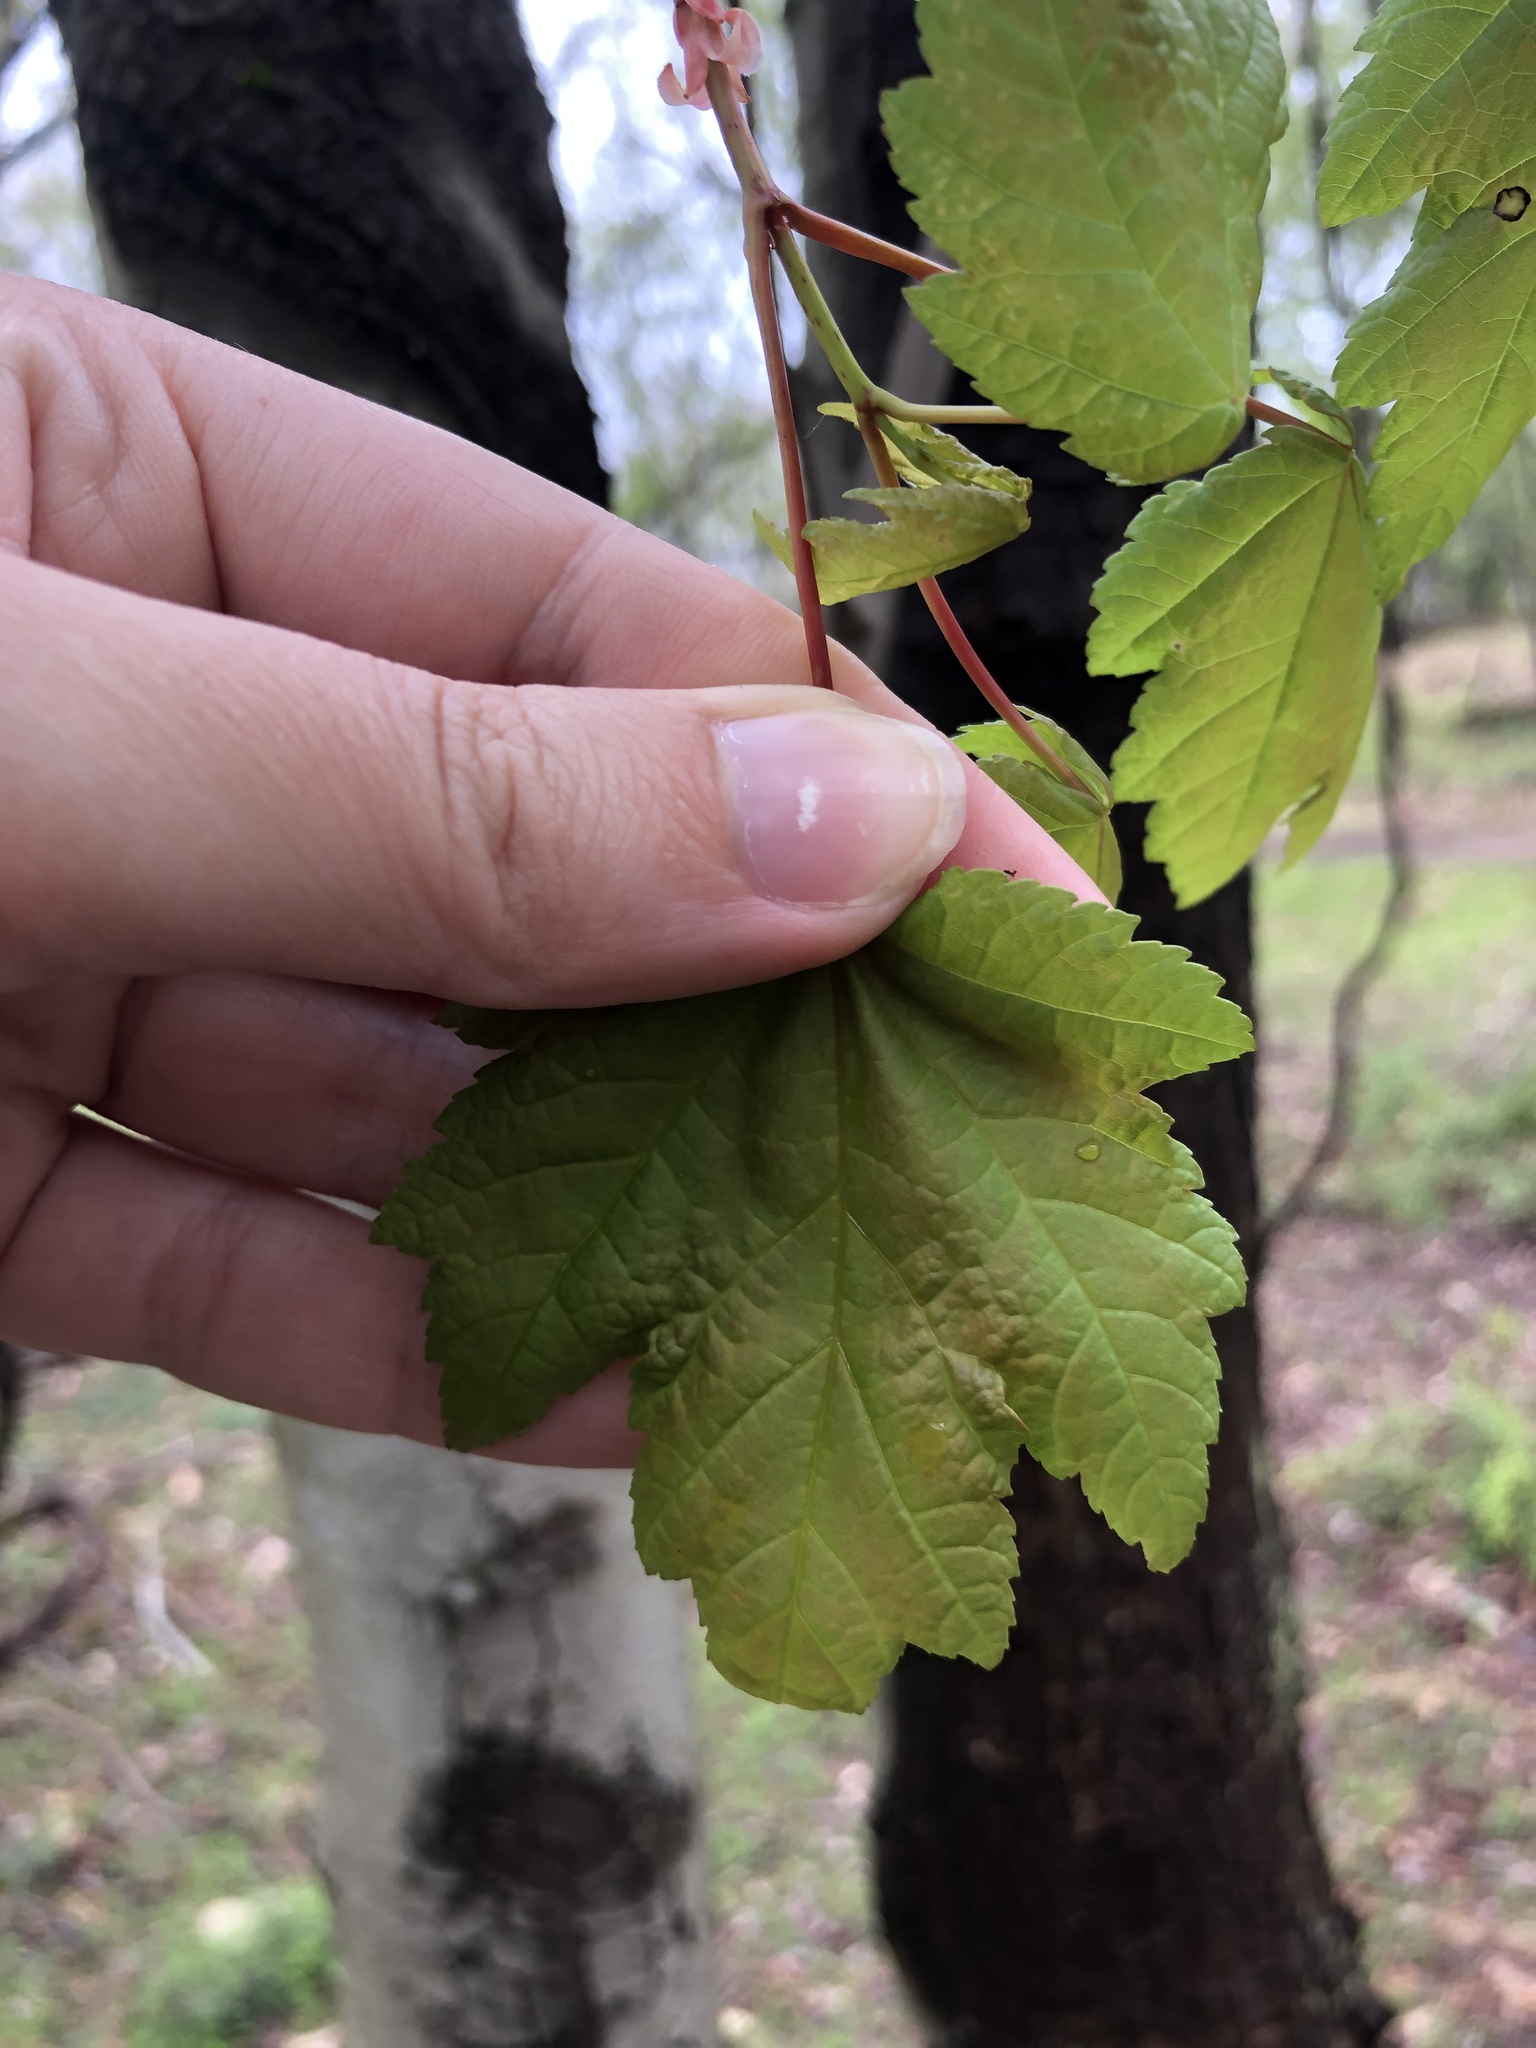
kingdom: Plantae
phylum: Tracheophyta
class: Magnoliopsida
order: Sapindales
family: Sapindaceae
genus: Acer
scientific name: Acer rubrum
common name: Red maple
